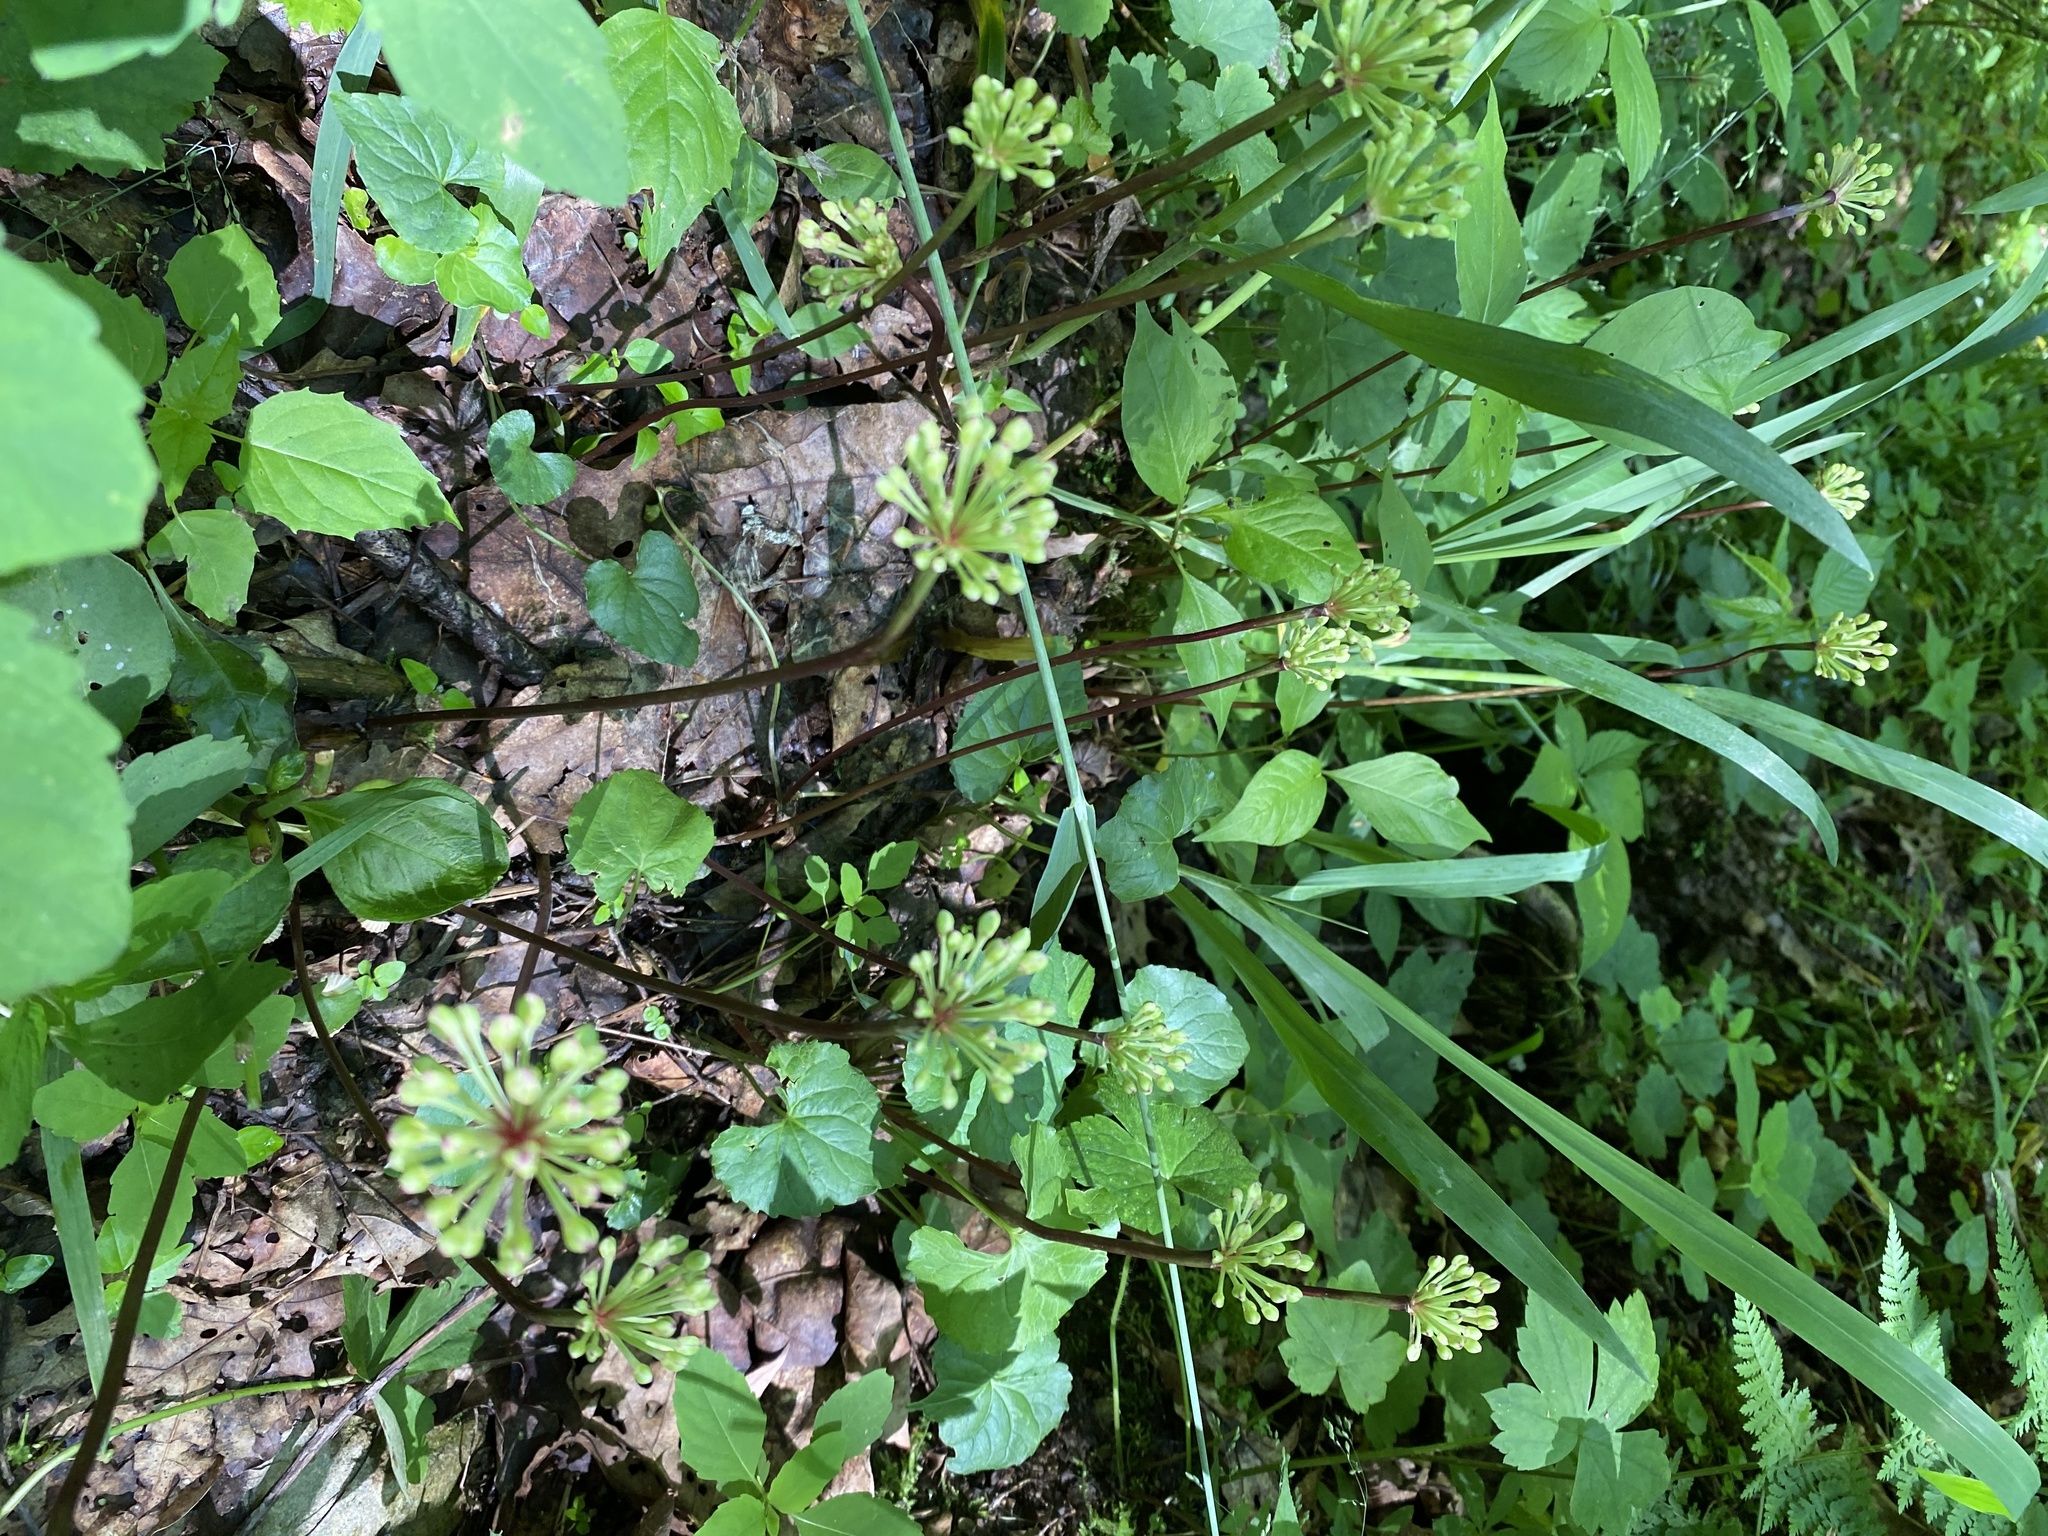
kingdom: Plantae
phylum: Tracheophyta
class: Liliopsida
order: Asparagales
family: Amaryllidaceae
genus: Allium
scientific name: Allium tricoccum
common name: Ramp
